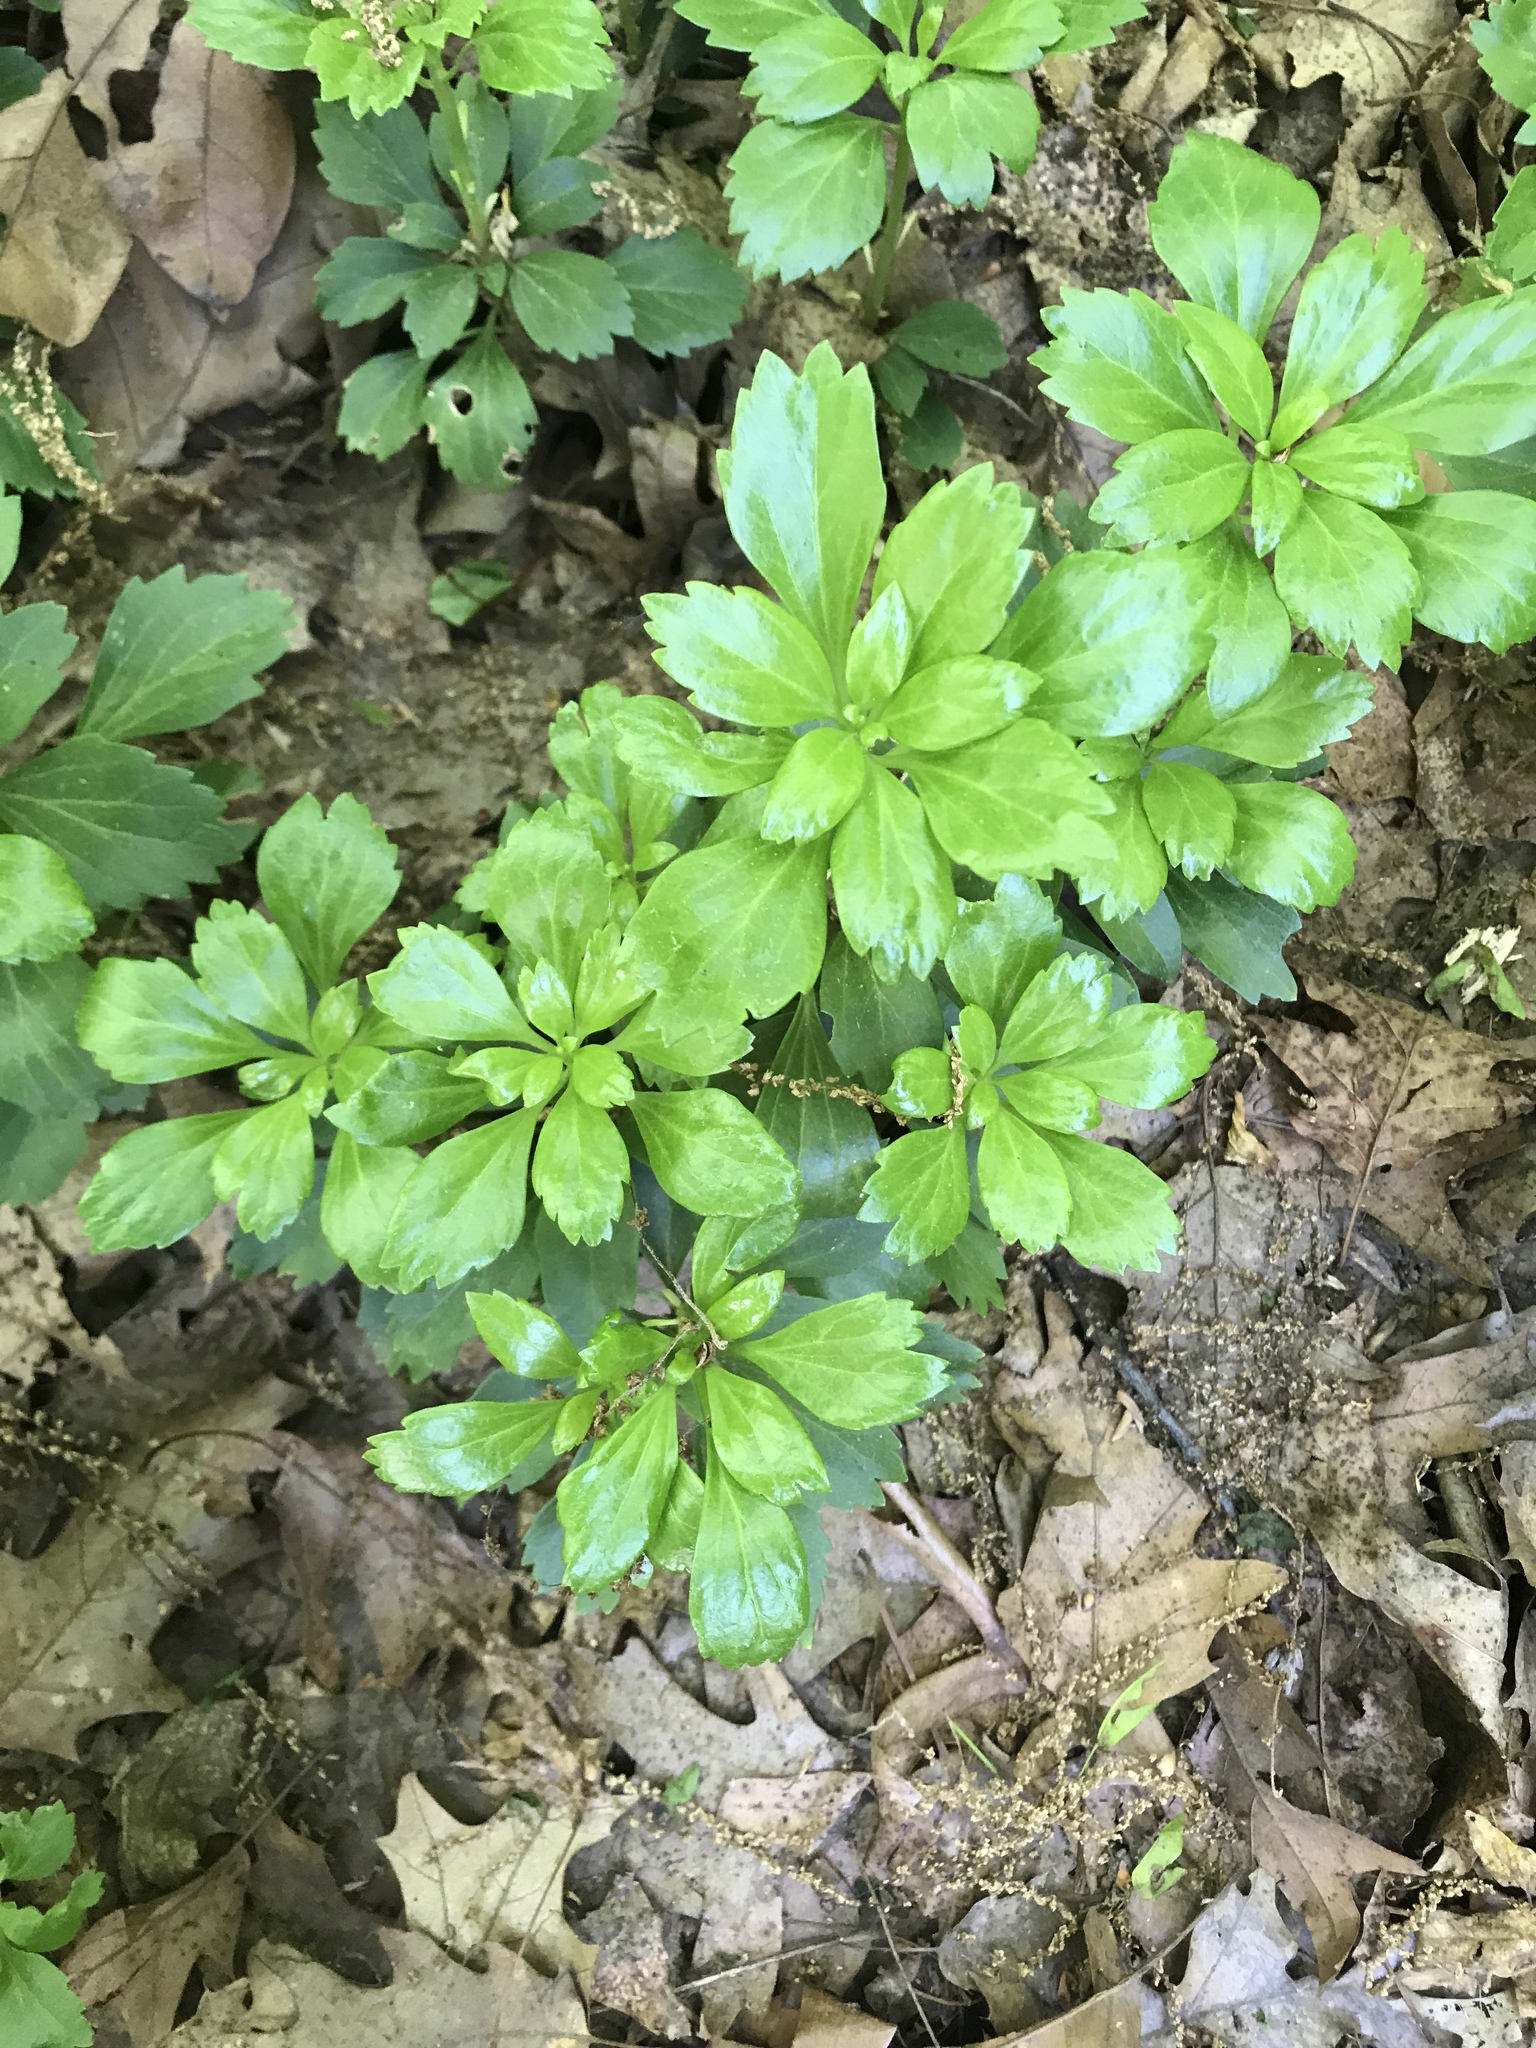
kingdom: Plantae
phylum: Tracheophyta
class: Magnoliopsida
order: Buxales
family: Buxaceae
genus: Pachysandra
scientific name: Pachysandra terminalis
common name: Japanese pachysandra
